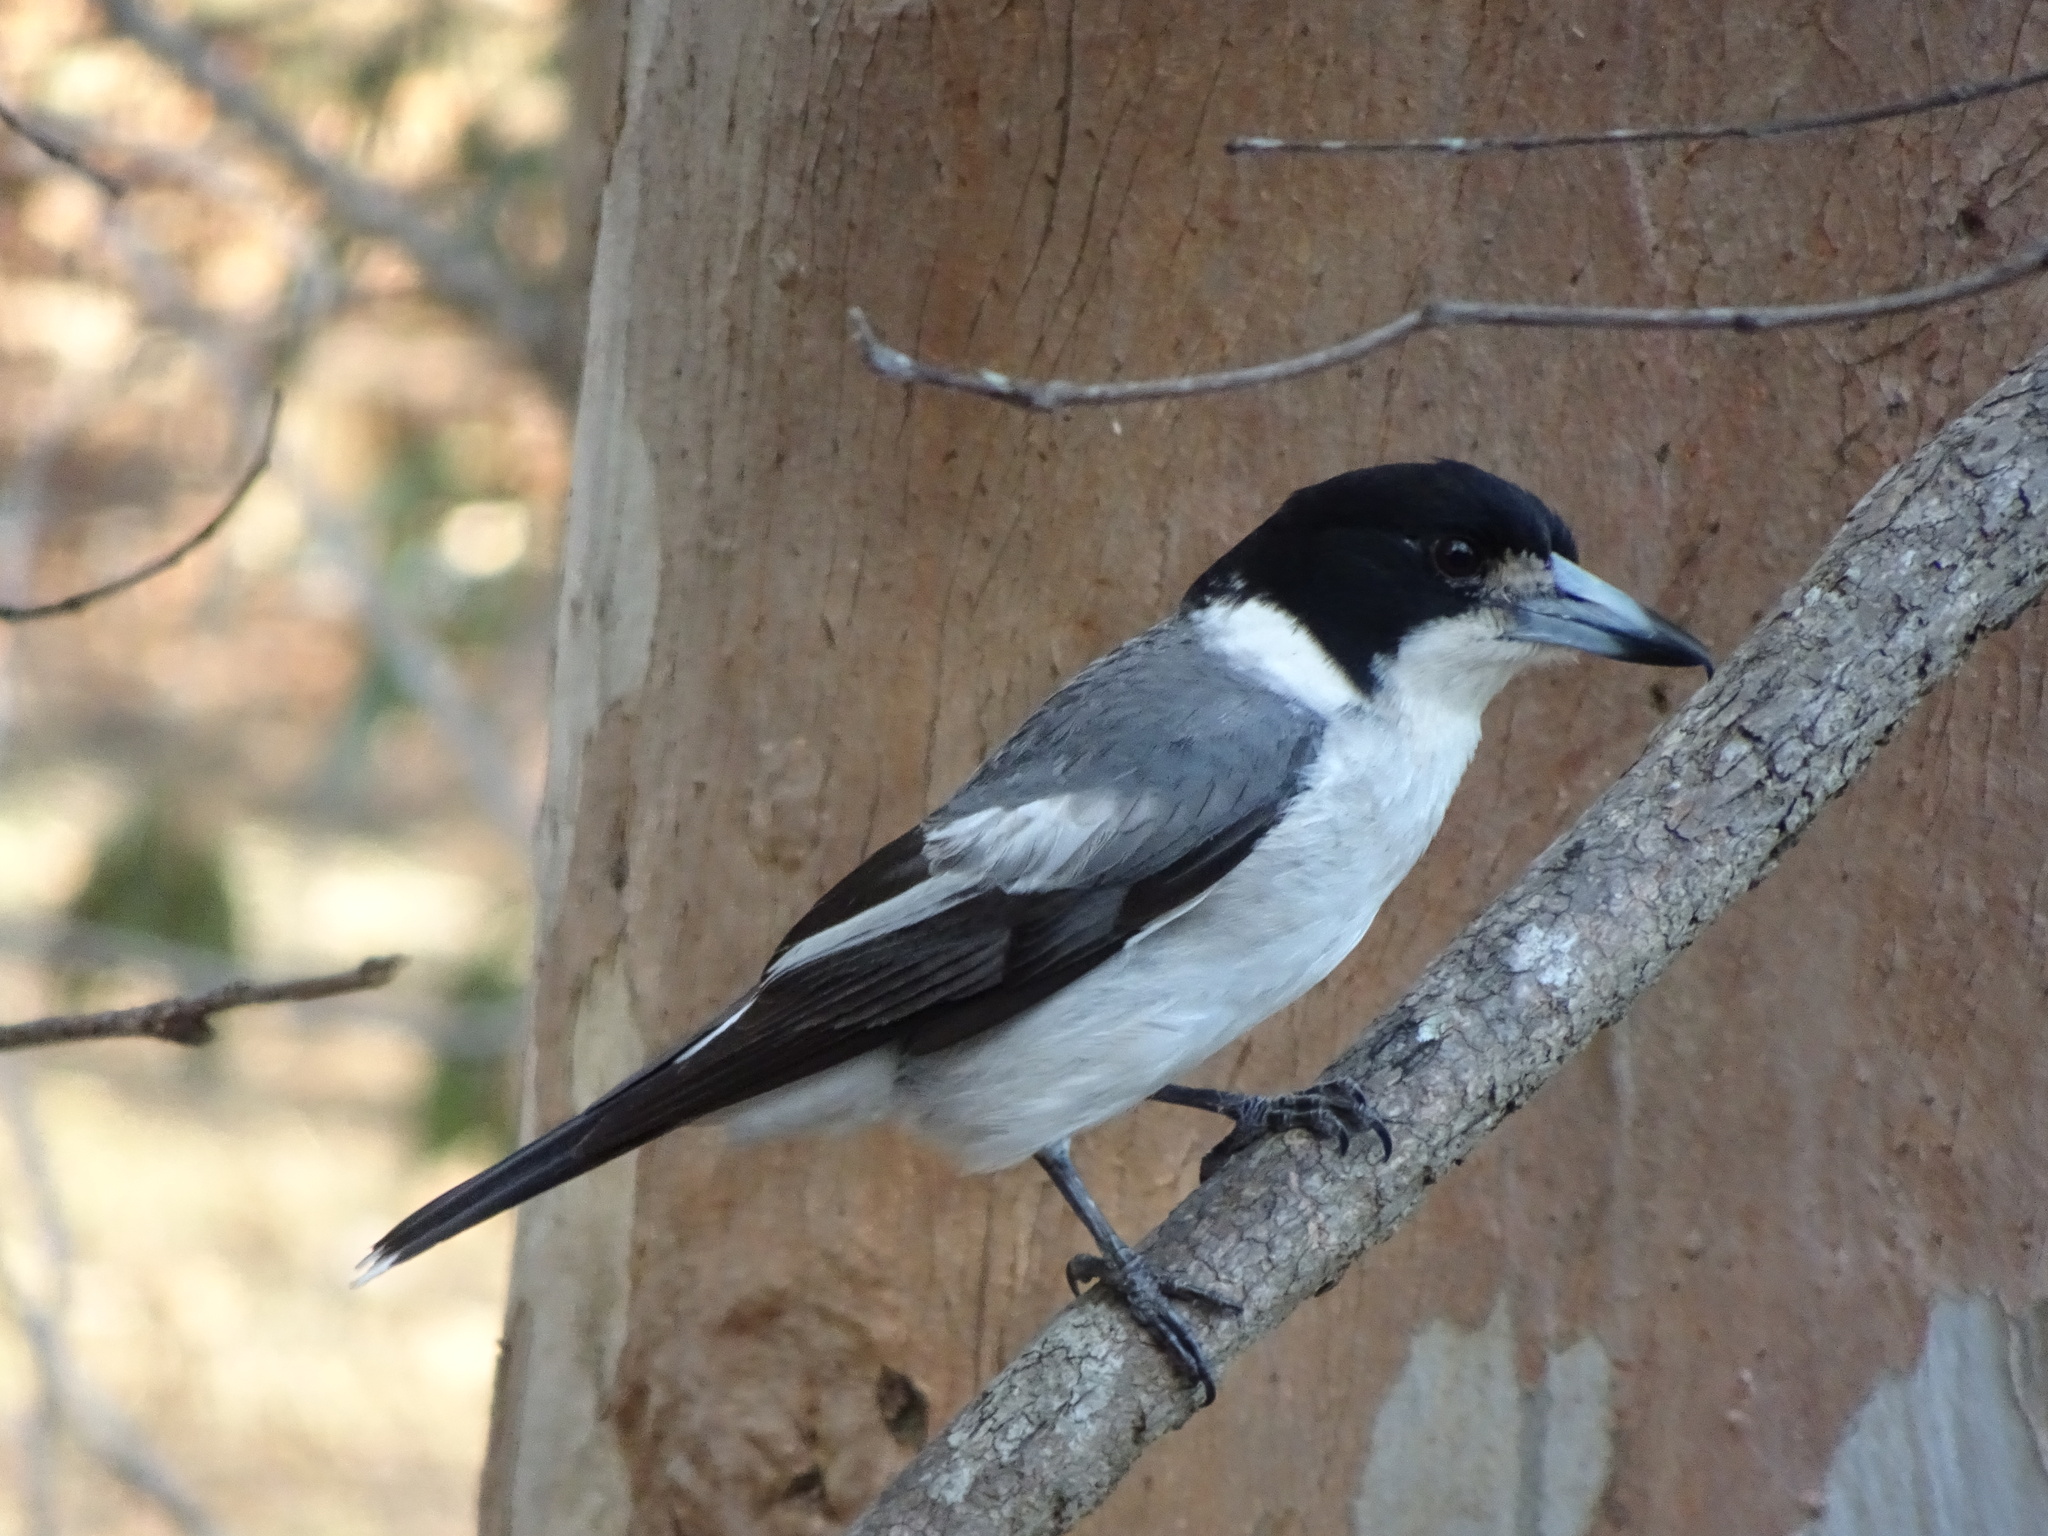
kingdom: Animalia
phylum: Chordata
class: Aves
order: Passeriformes
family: Cracticidae
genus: Cracticus
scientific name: Cracticus torquatus
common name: Grey butcherbird
